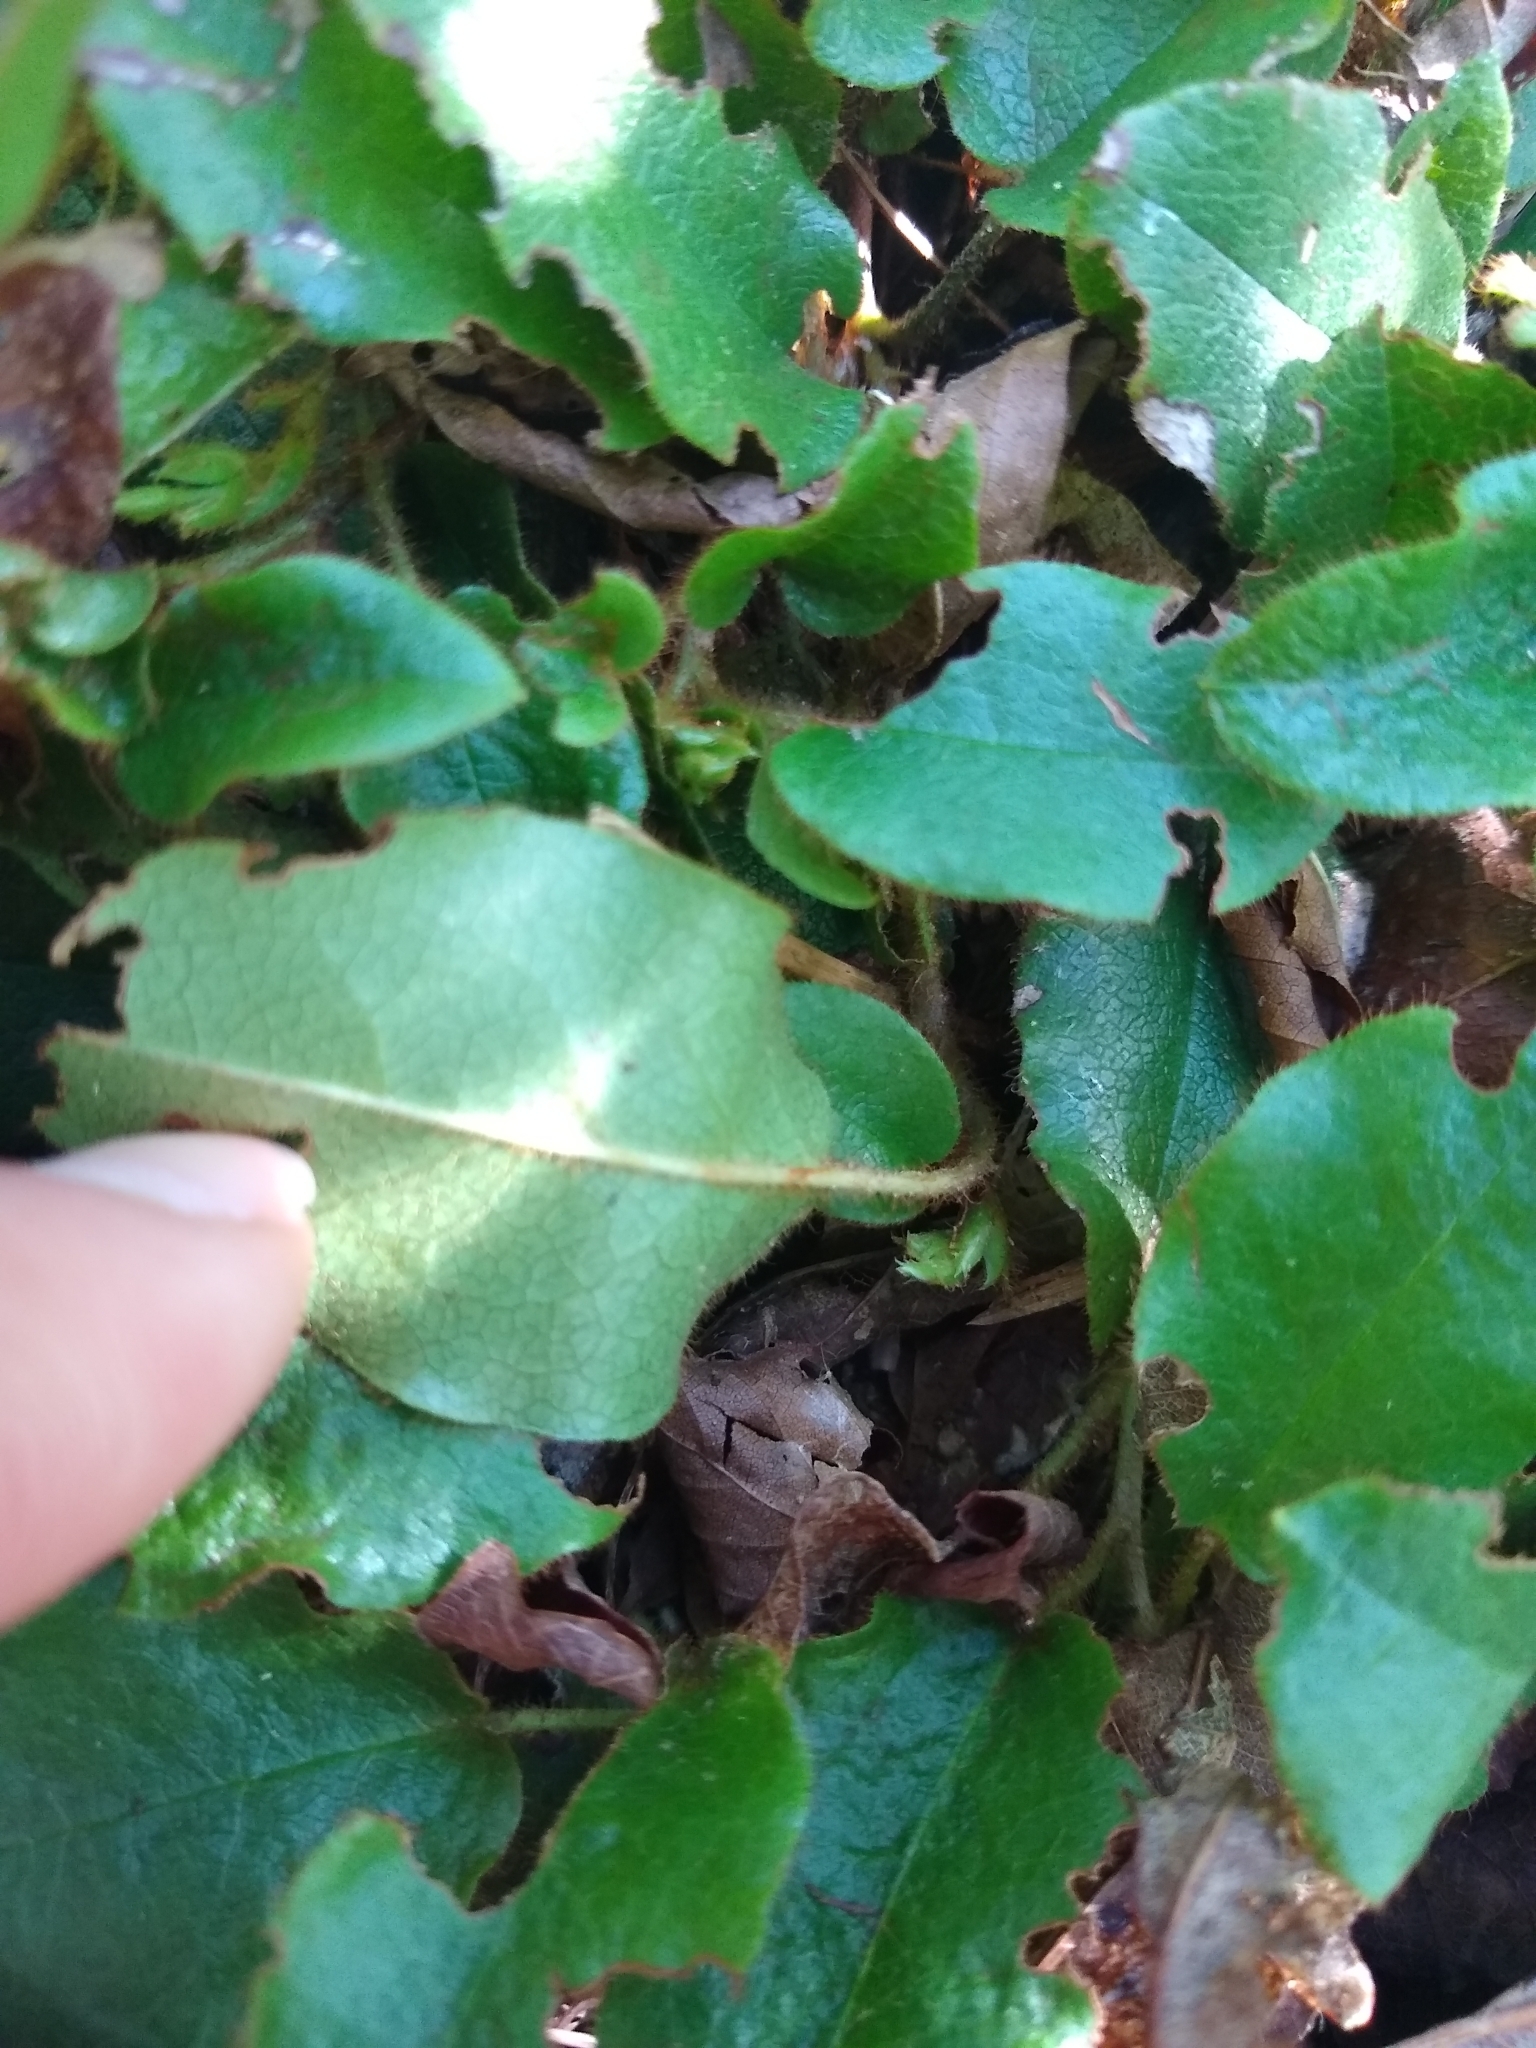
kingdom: Plantae
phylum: Tracheophyta
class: Magnoliopsida
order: Ericales
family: Ericaceae
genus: Epigaea
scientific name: Epigaea repens
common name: Gravelroot
